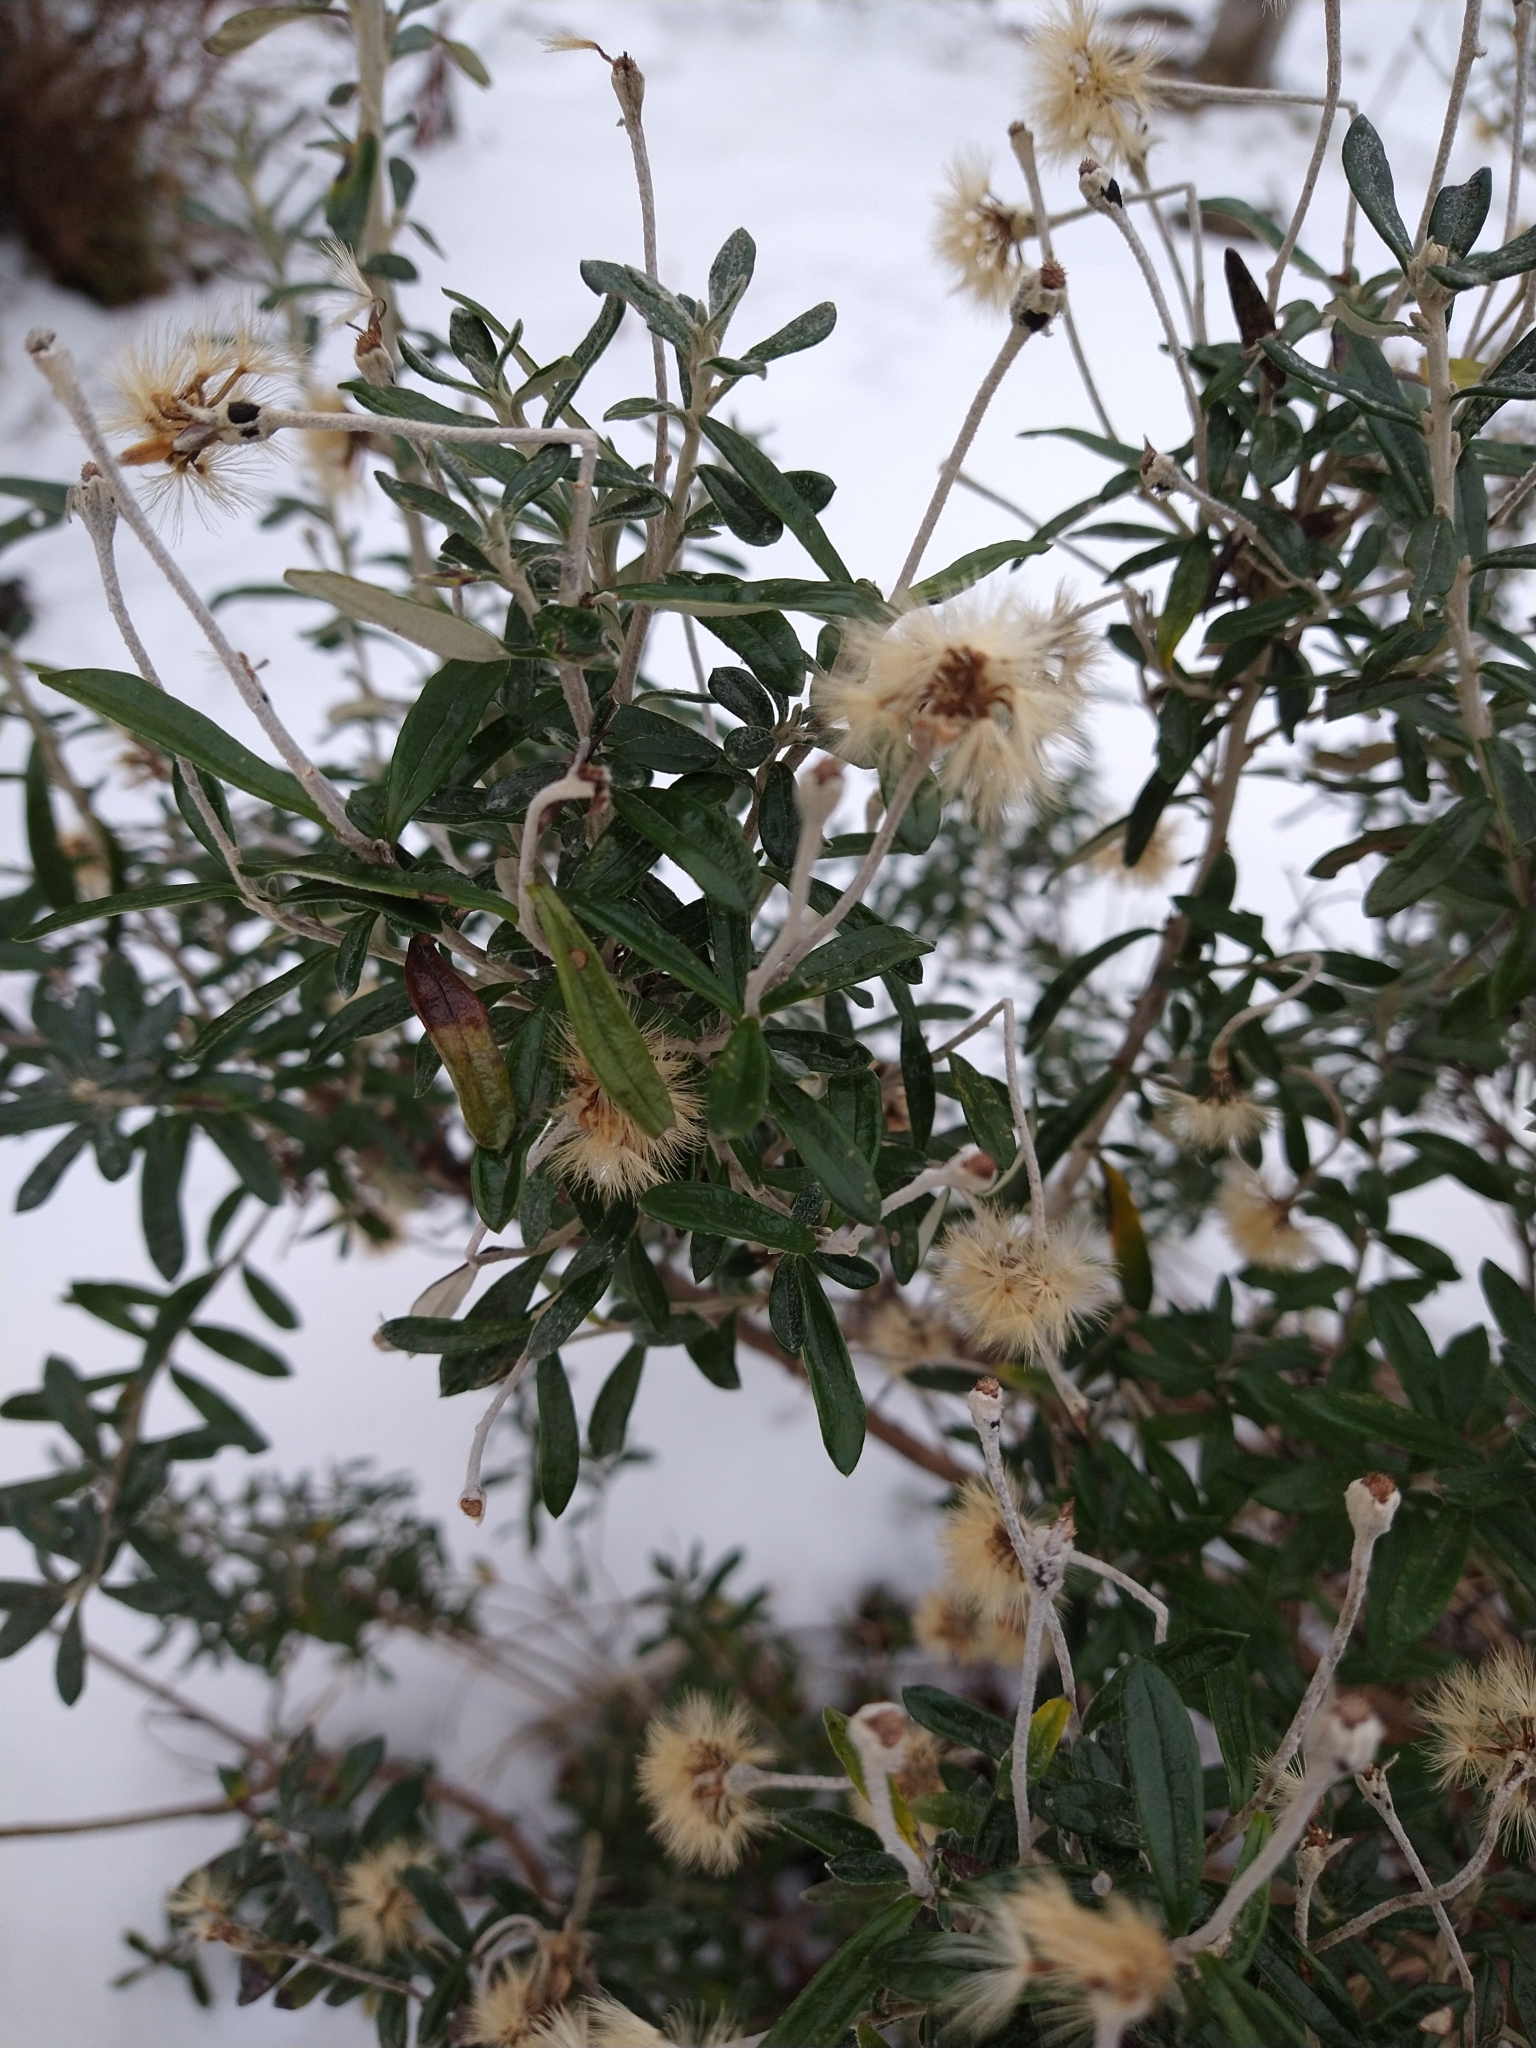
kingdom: Plantae
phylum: Tracheophyta
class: Magnoliopsida
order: Asterales
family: Asteraceae
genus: Chiliotrichum
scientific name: Chiliotrichum diffusum
